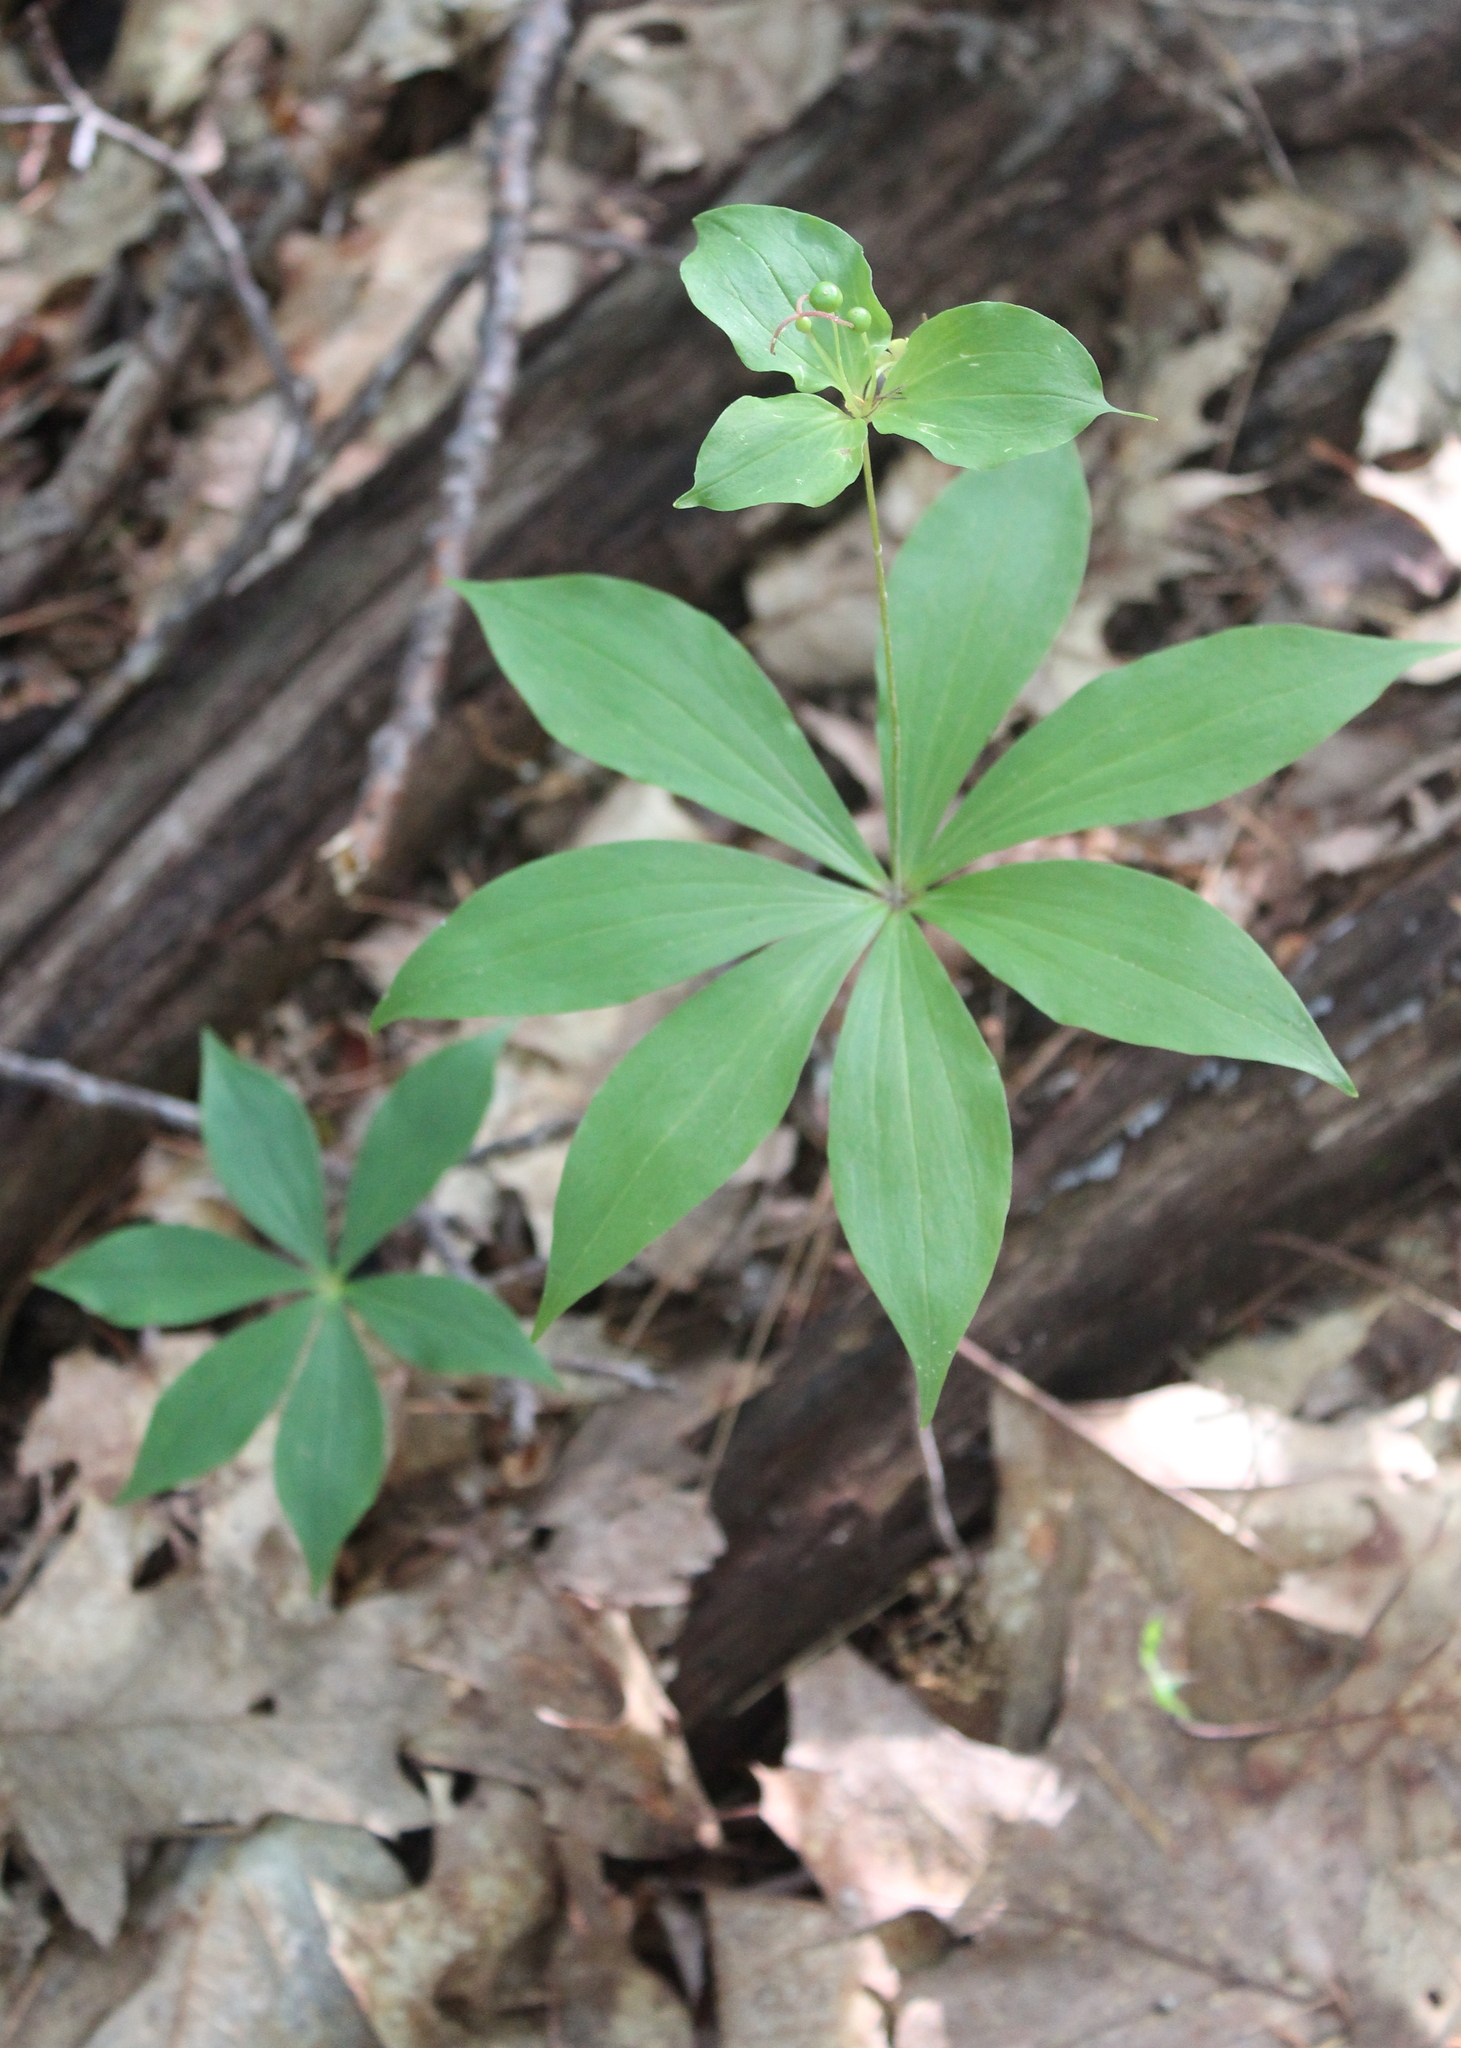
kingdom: Plantae
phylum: Tracheophyta
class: Liliopsida
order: Liliales
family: Liliaceae
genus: Medeola
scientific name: Medeola virginiana
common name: Indian cucumber-root
